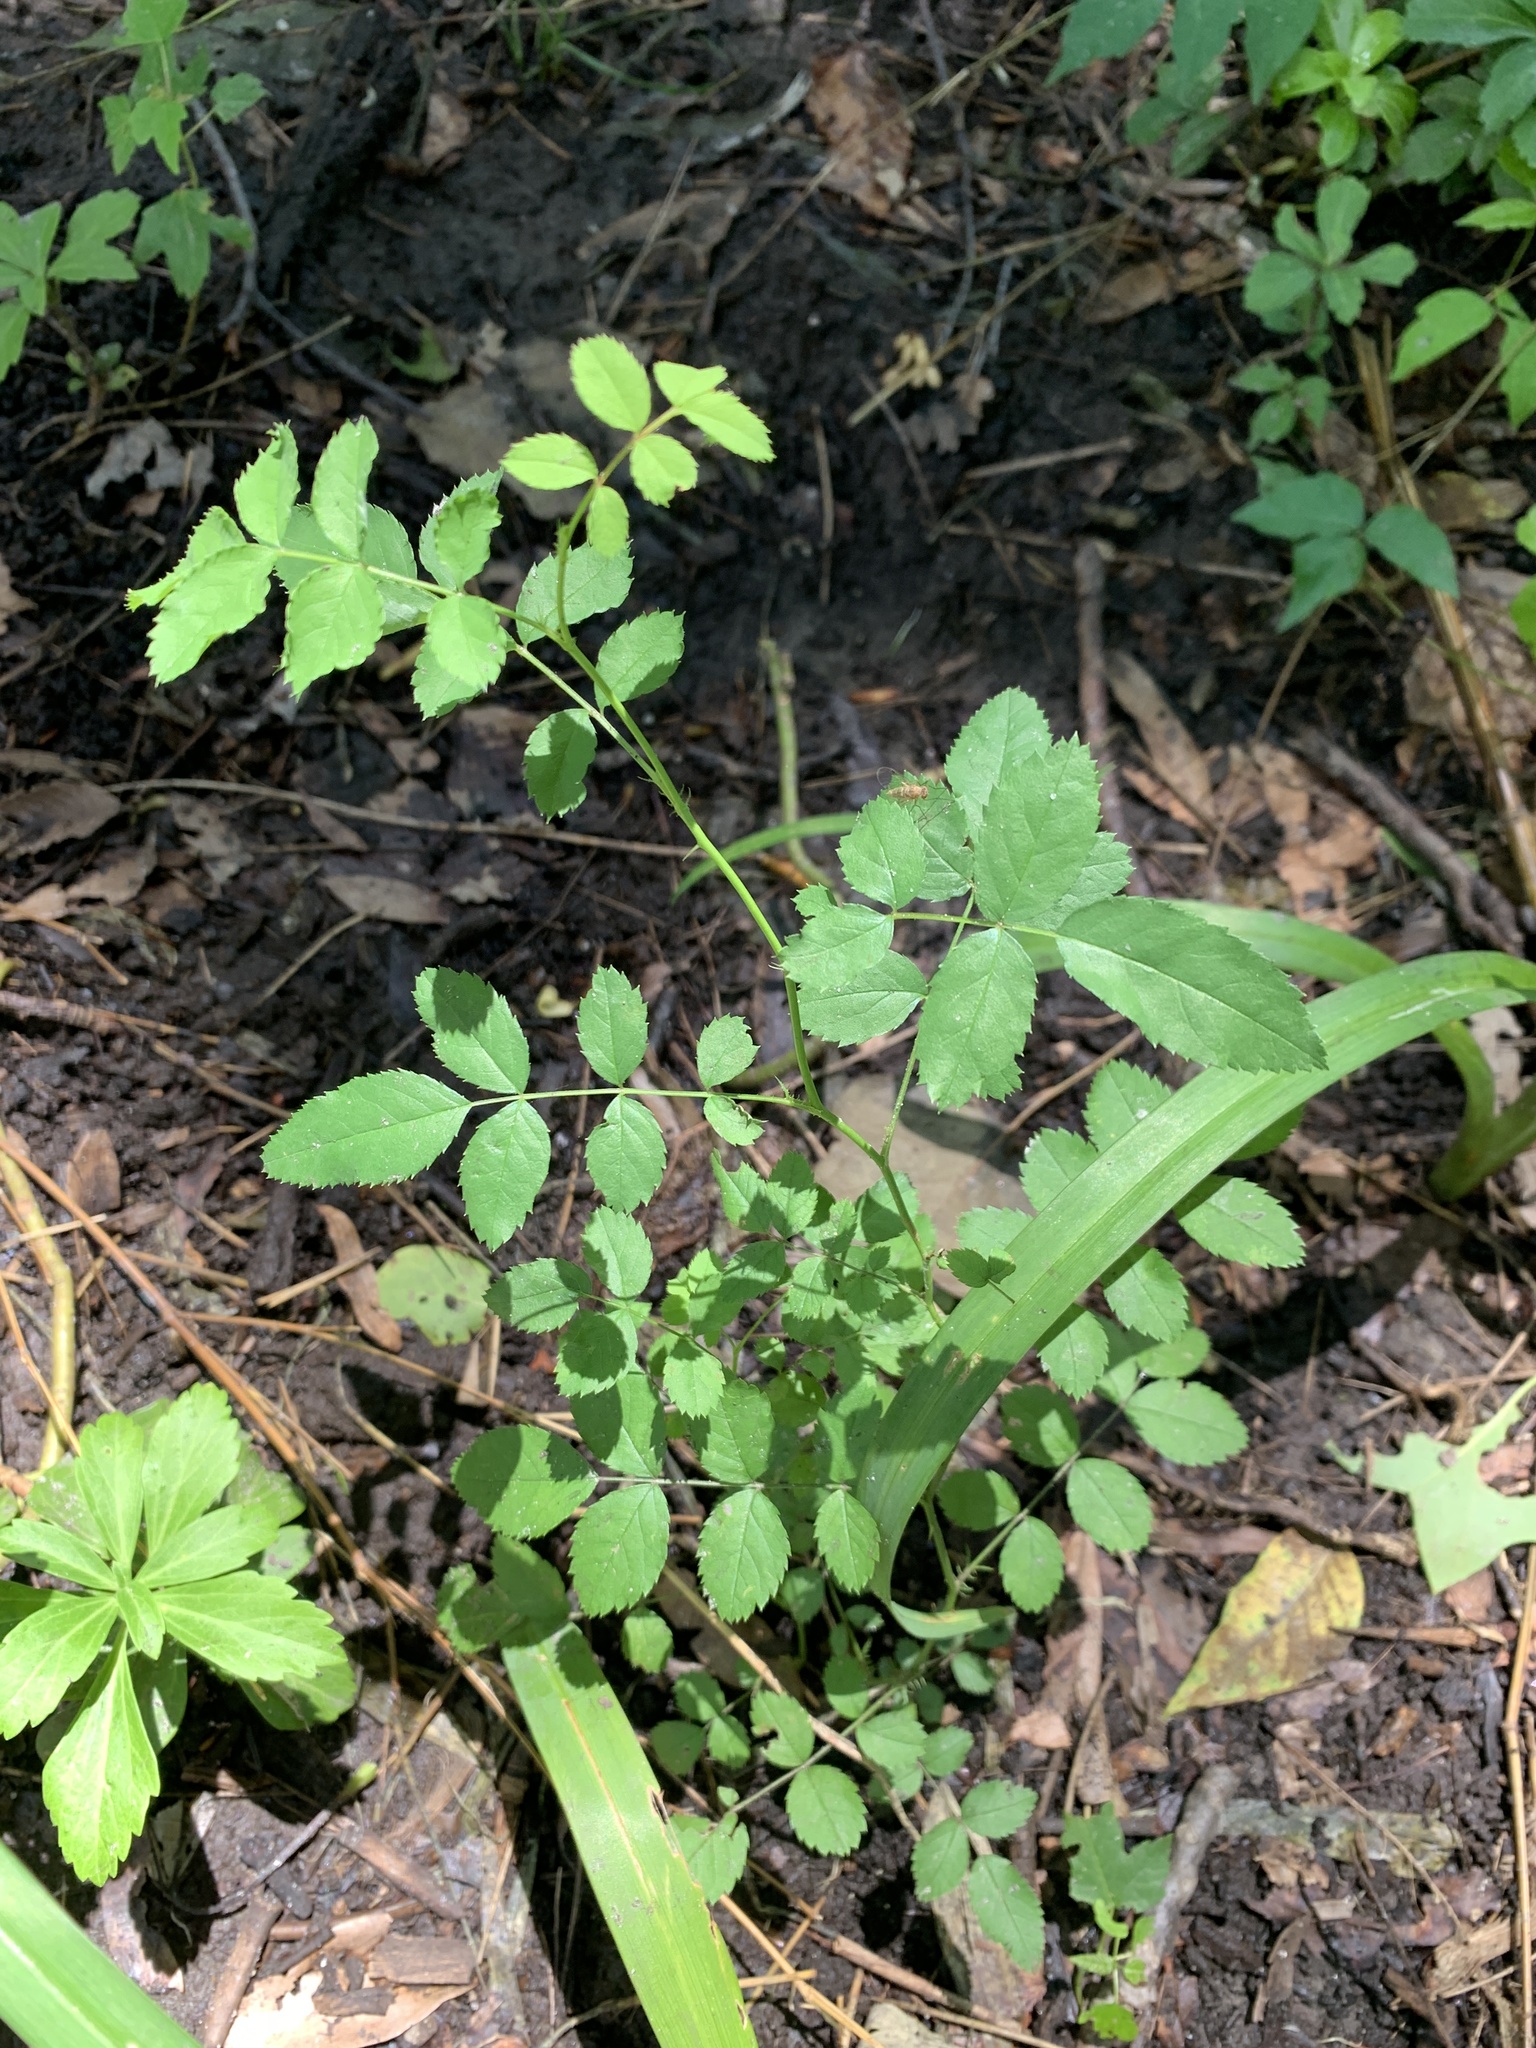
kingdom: Plantae
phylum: Tracheophyta
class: Magnoliopsida
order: Rosales
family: Rosaceae
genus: Rosa
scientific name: Rosa multiflora
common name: Multiflora rose
